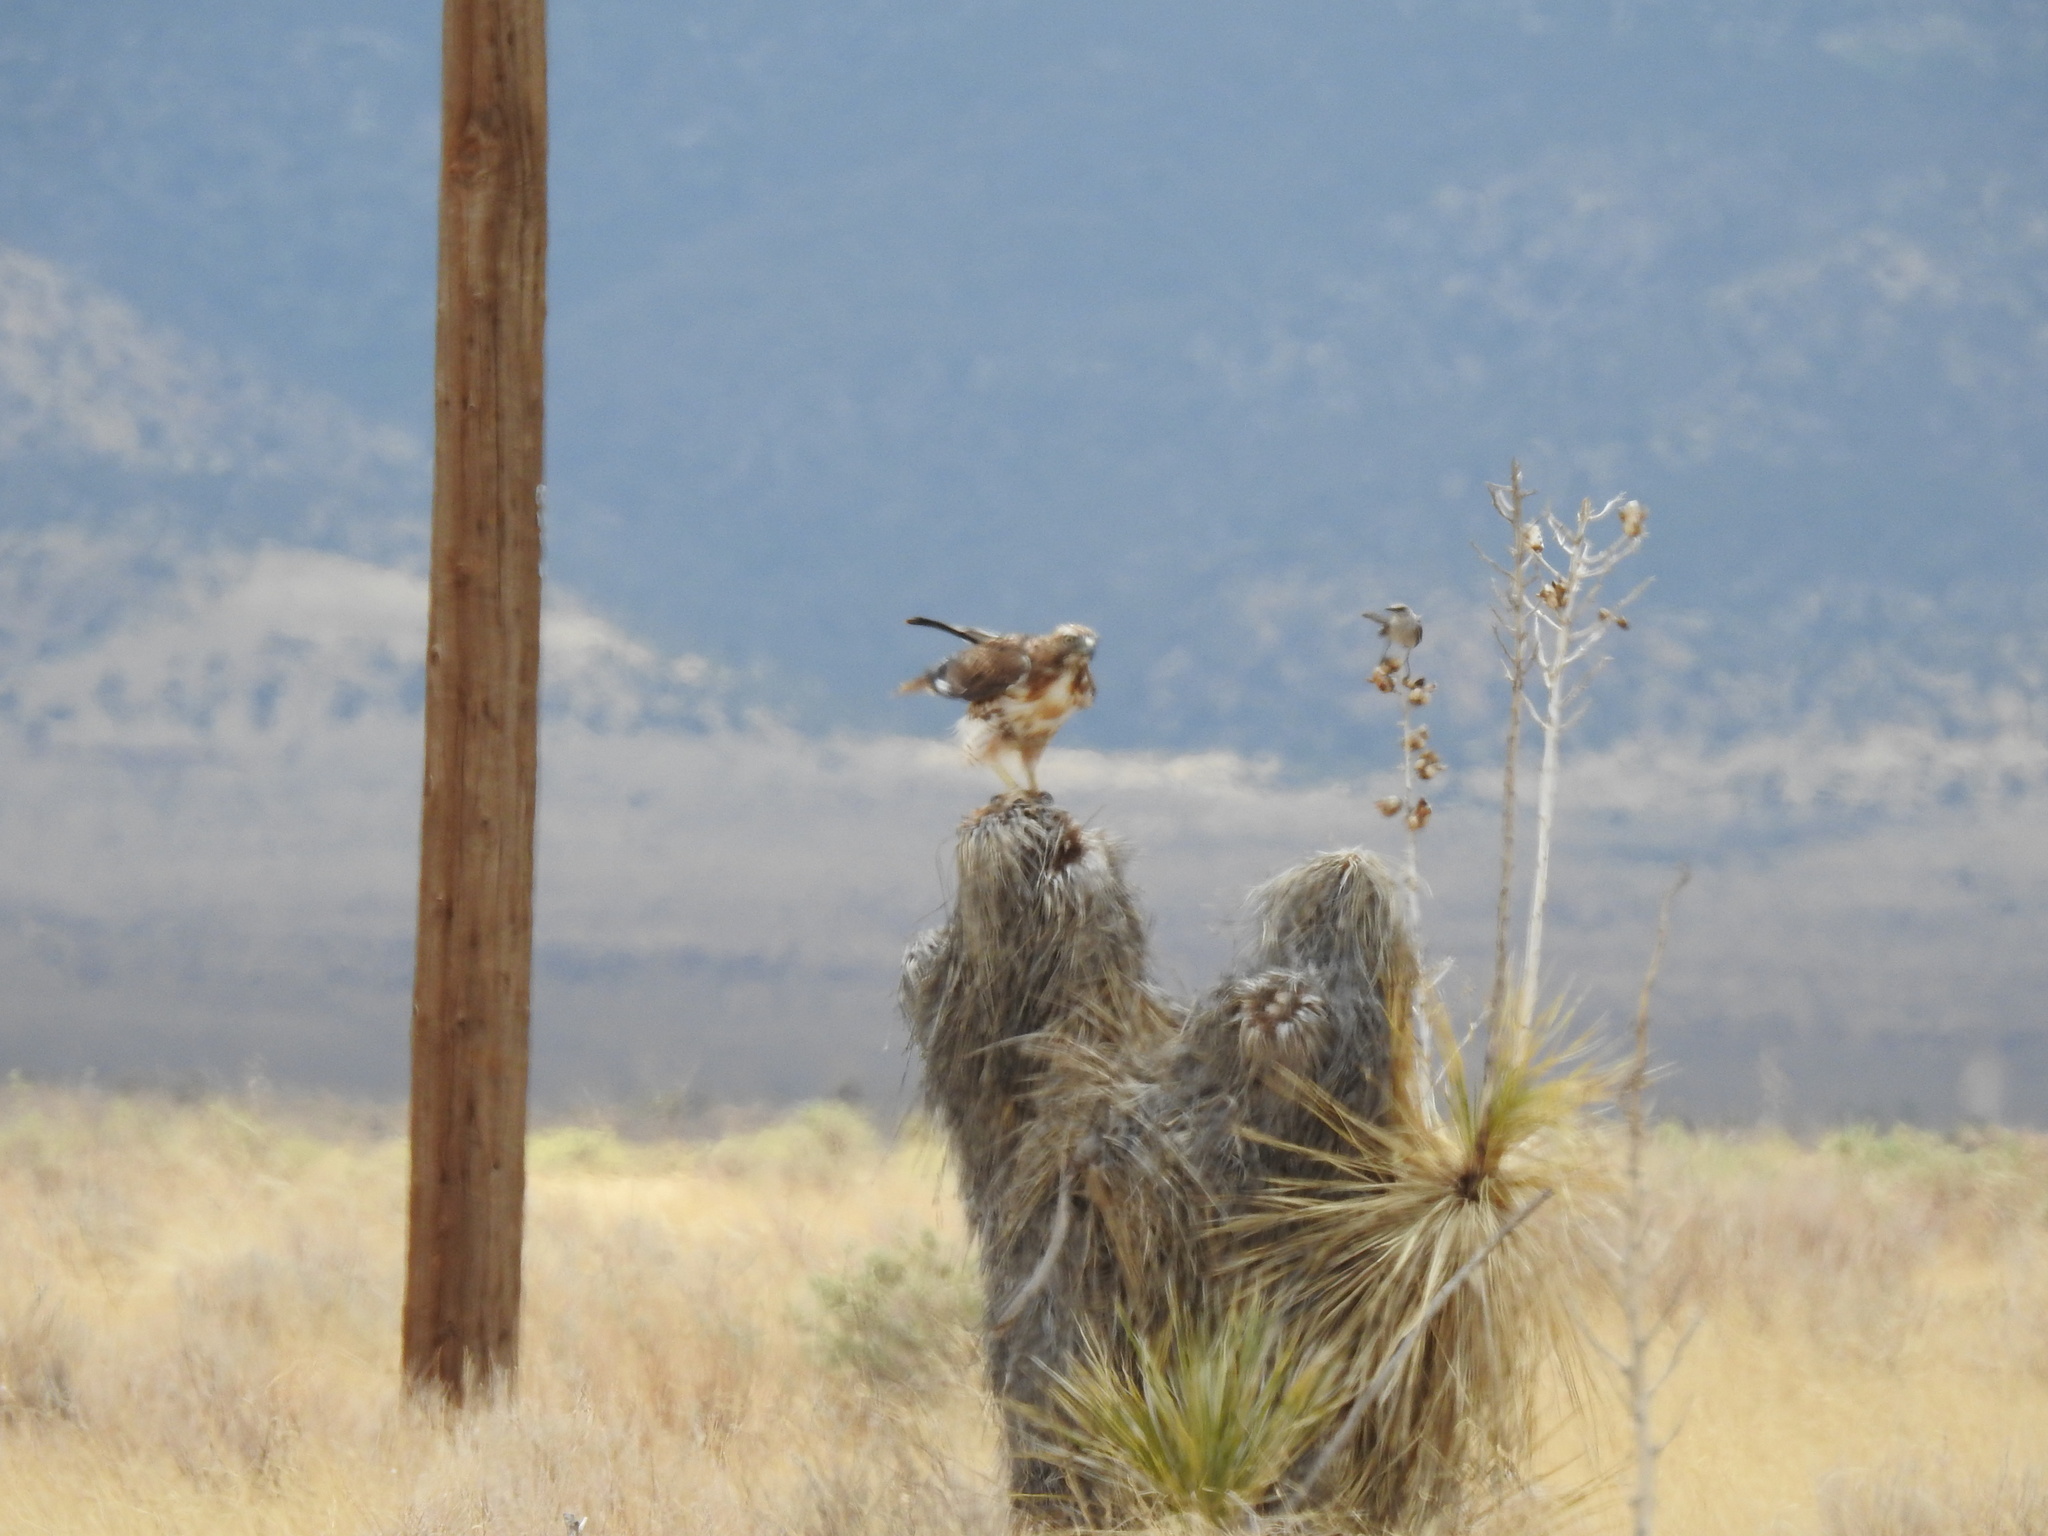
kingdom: Animalia
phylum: Chordata
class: Aves
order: Accipitriformes
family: Accipitridae
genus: Buteo
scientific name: Buteo jamaicensis
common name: Red-tailed hawk
